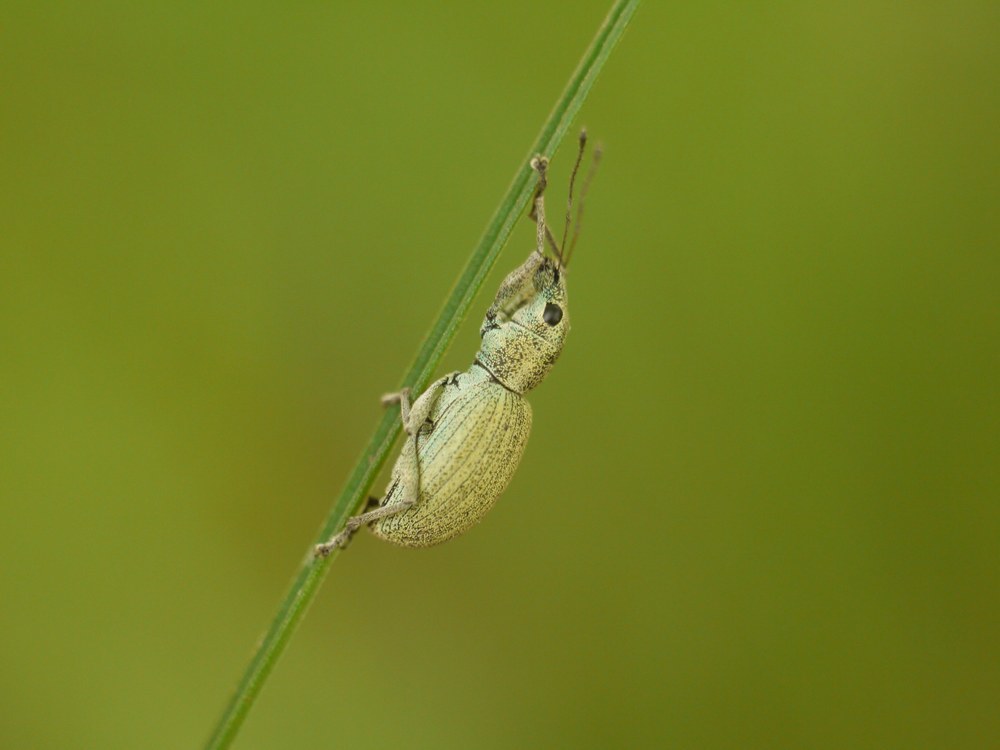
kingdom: Animalia
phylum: Arthropoda
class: Insecta
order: Coleoptera
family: Curculionidae
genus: Eusomus
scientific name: Eusomus ovulum
